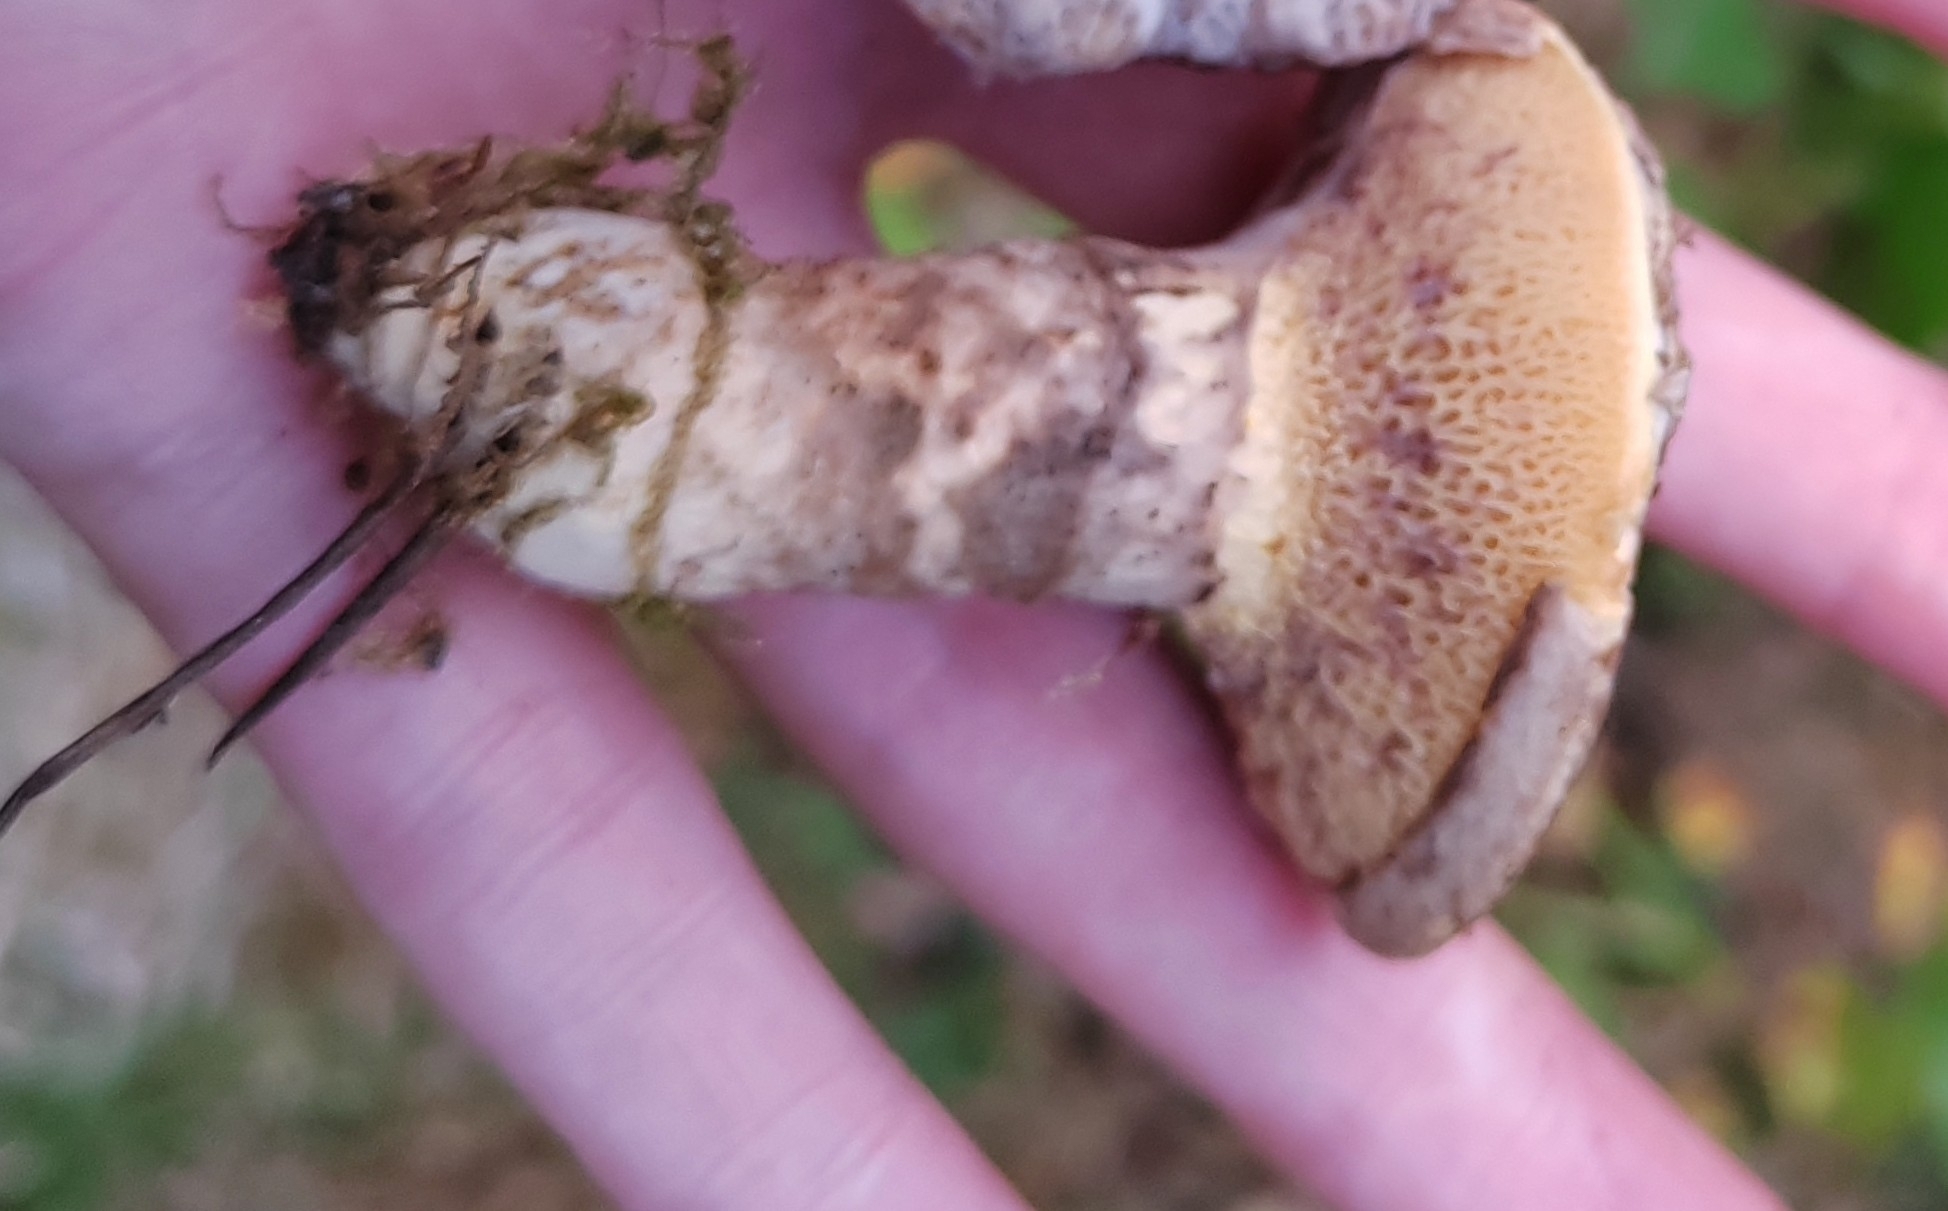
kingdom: Fungi
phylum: Basidiomycota
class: Agaricomycetes
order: Boletales
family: Suillaceae
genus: Suillus
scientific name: Suillus spraguei
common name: Painted suillus
